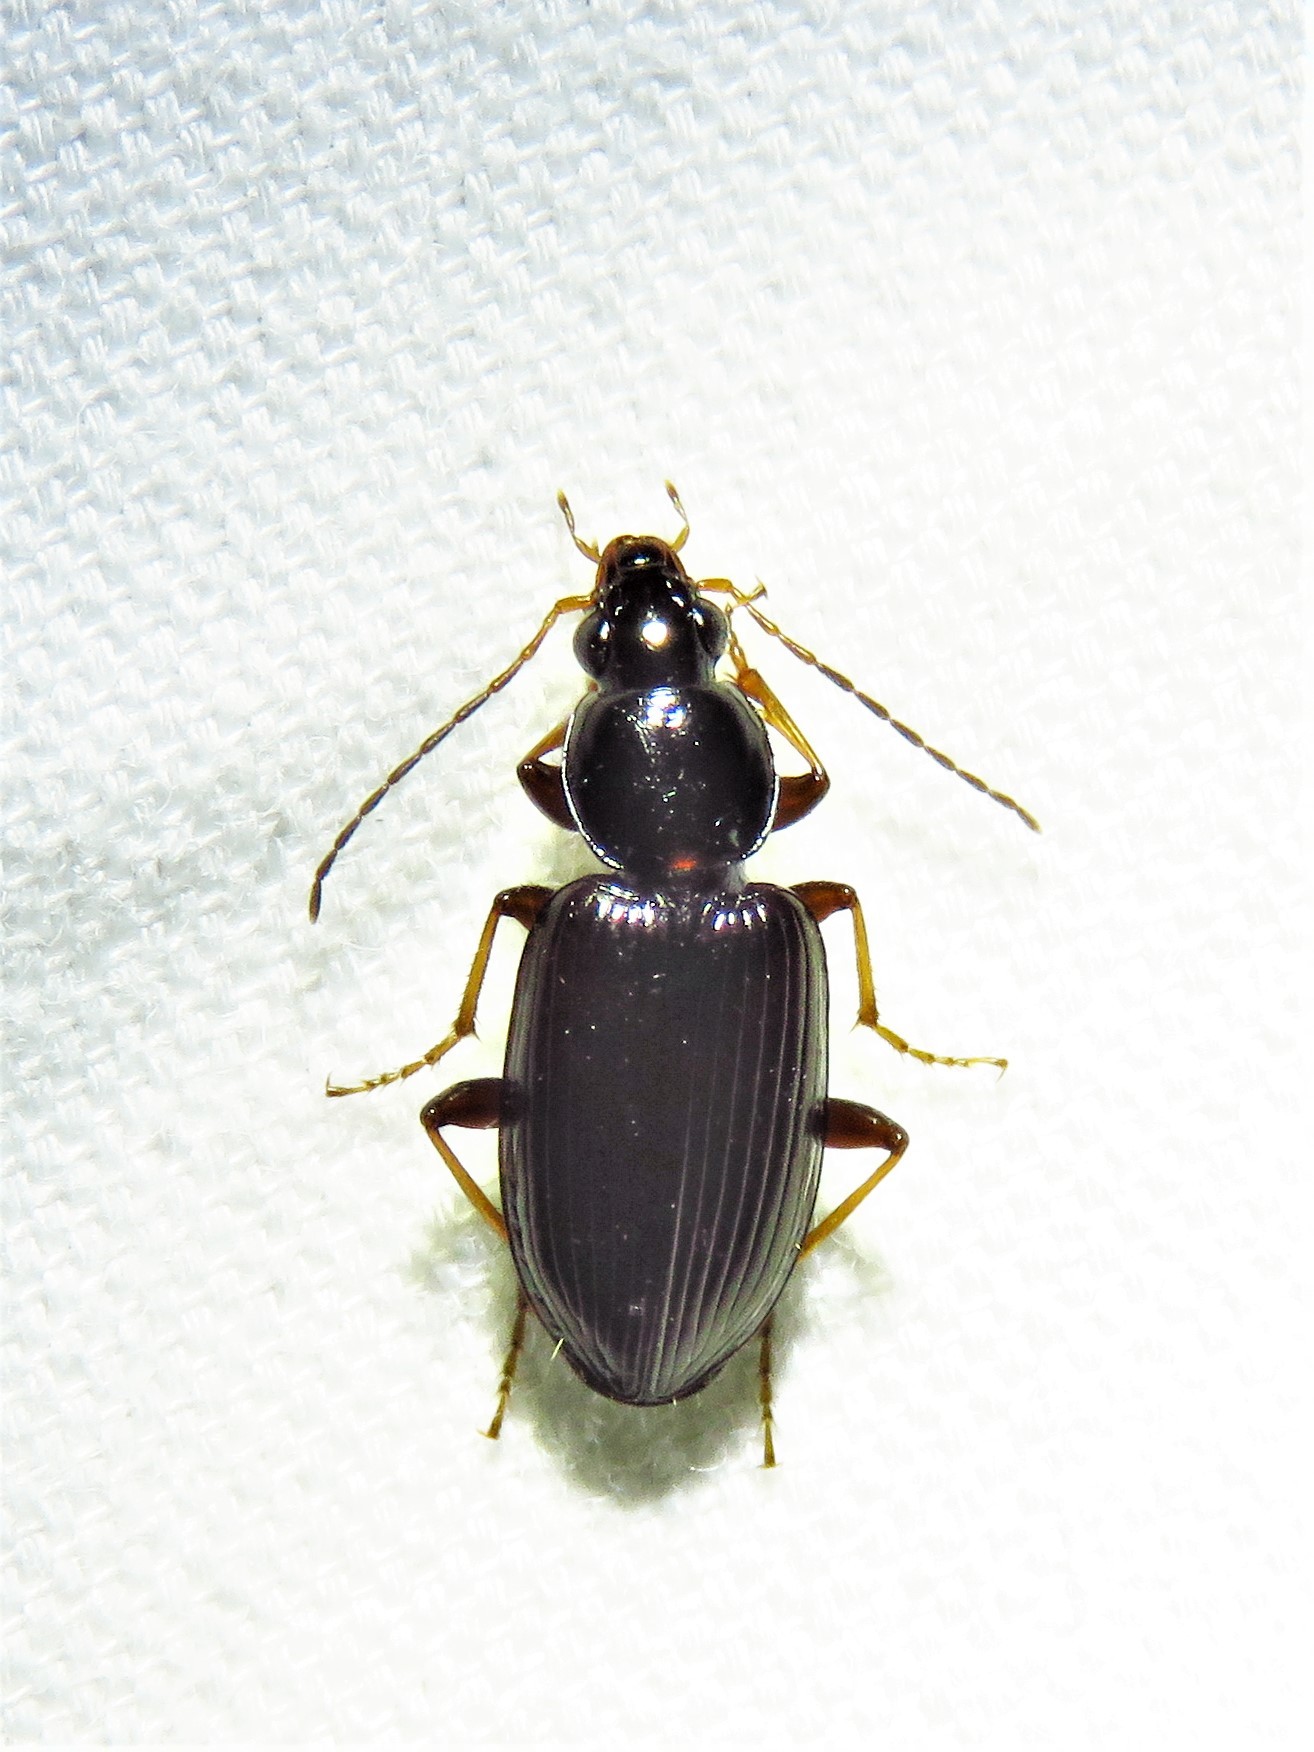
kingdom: Animalia
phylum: Arthropoda
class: Insecta
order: Coleoptera
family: Carabidae
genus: Agonum
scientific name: Agonum punctiforme
